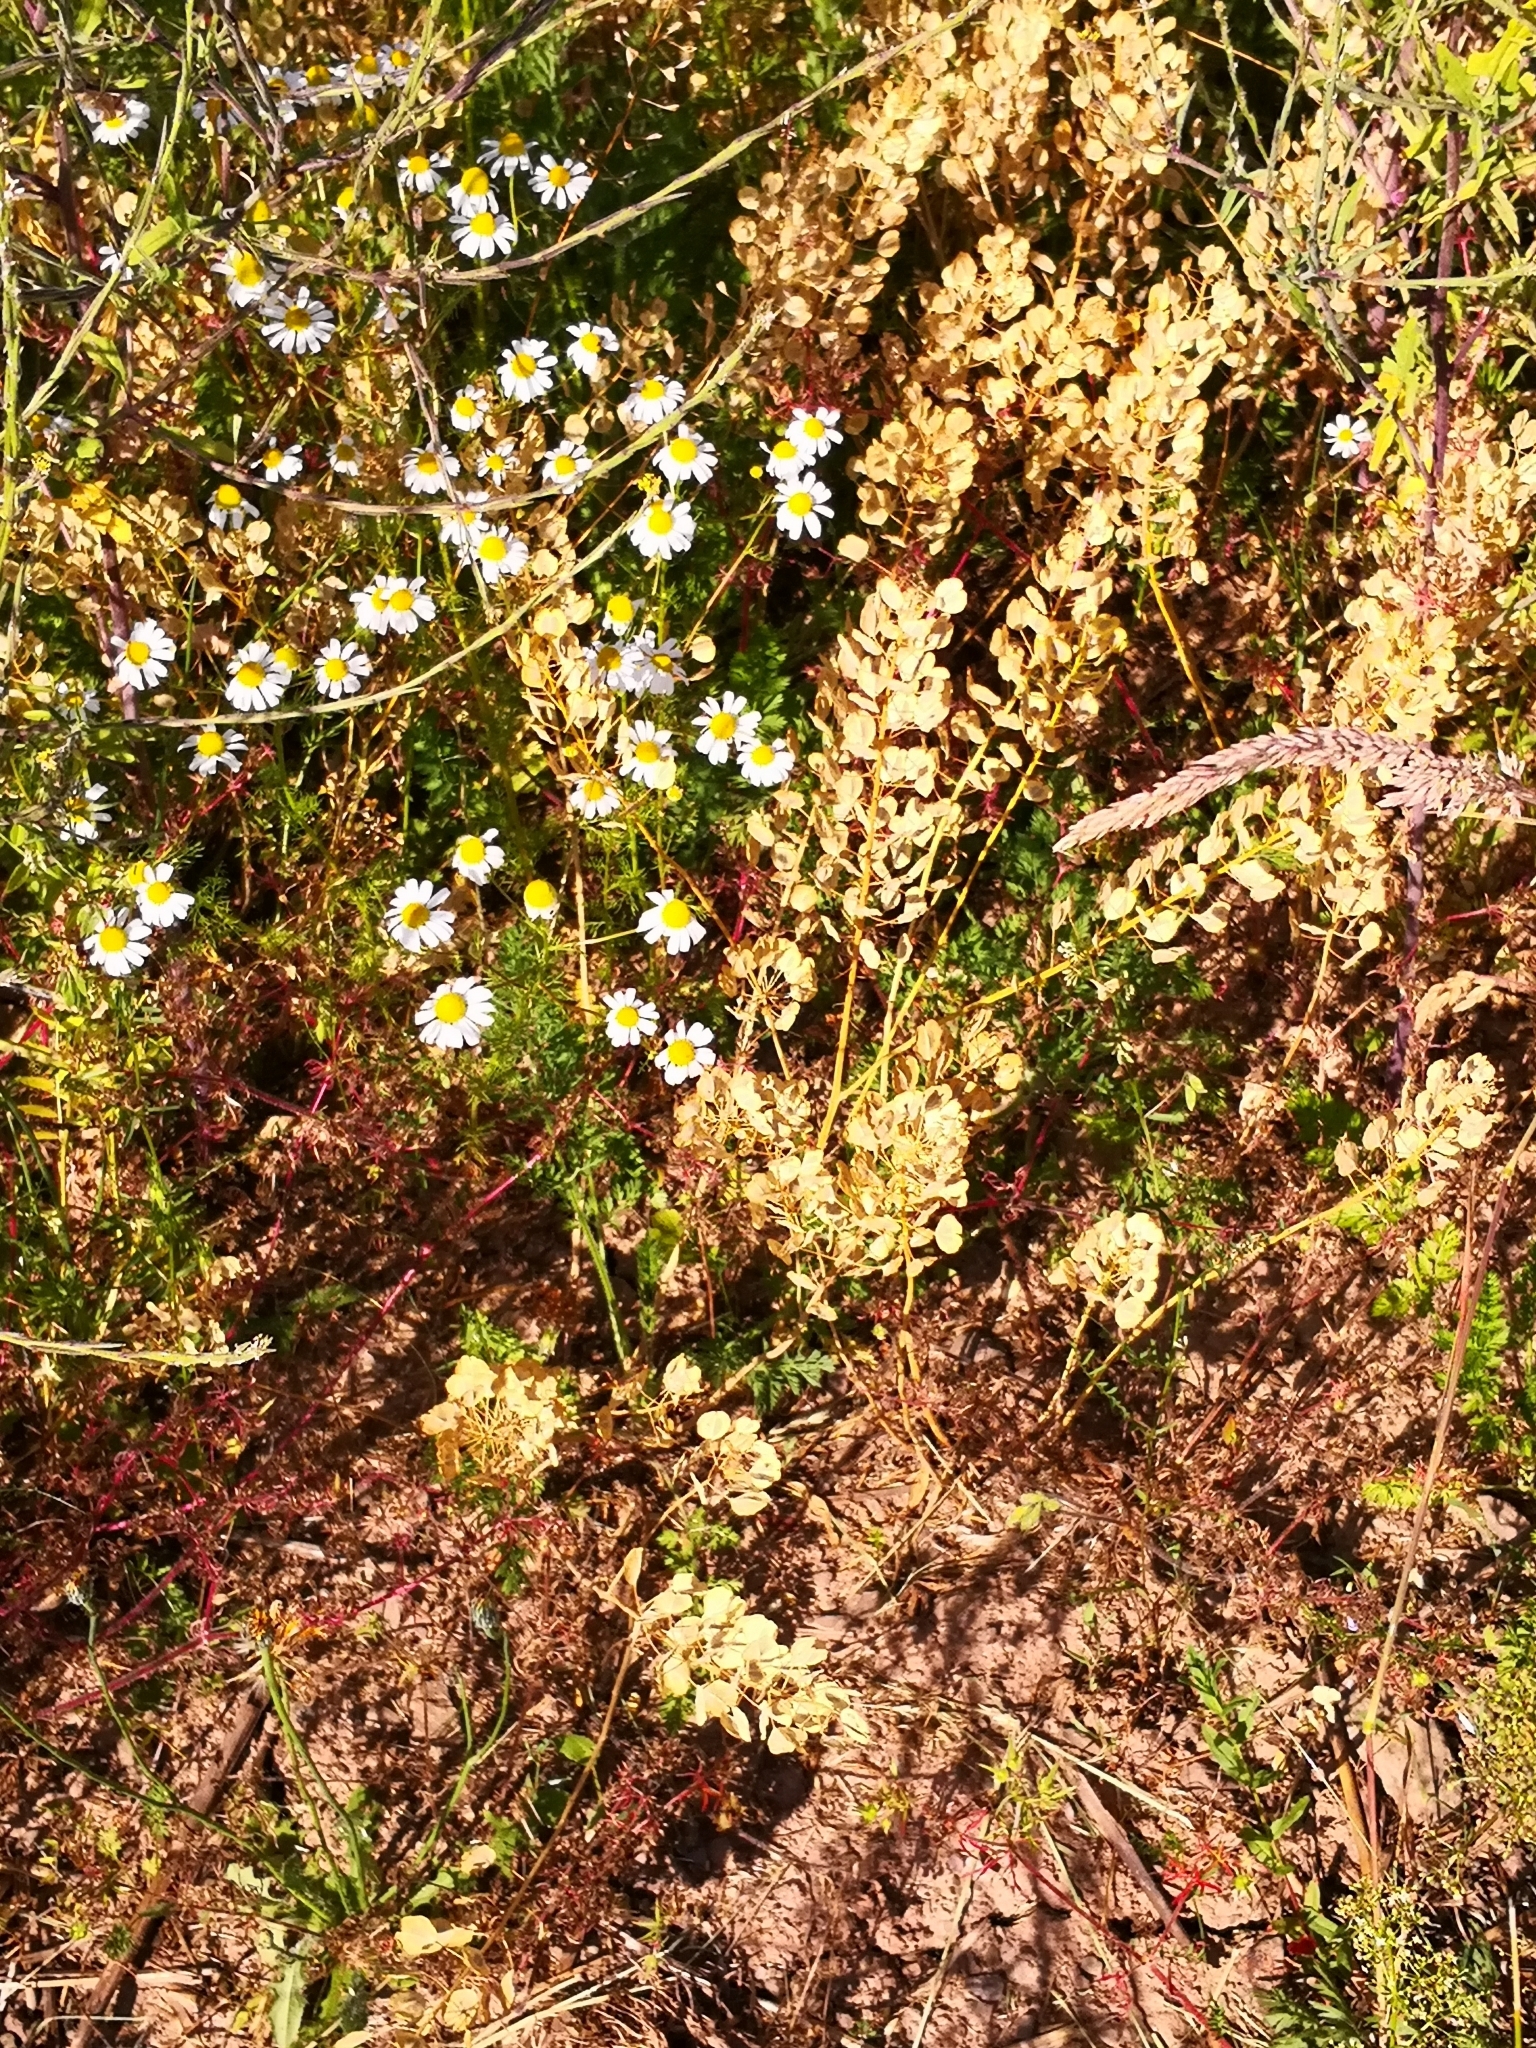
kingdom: Plantae
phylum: Tracheophyta
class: Magnoliopsida
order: Brassicales
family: Brassicaceae
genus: Thlaspi
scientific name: Thlaspi arvense
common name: Field pennycress
